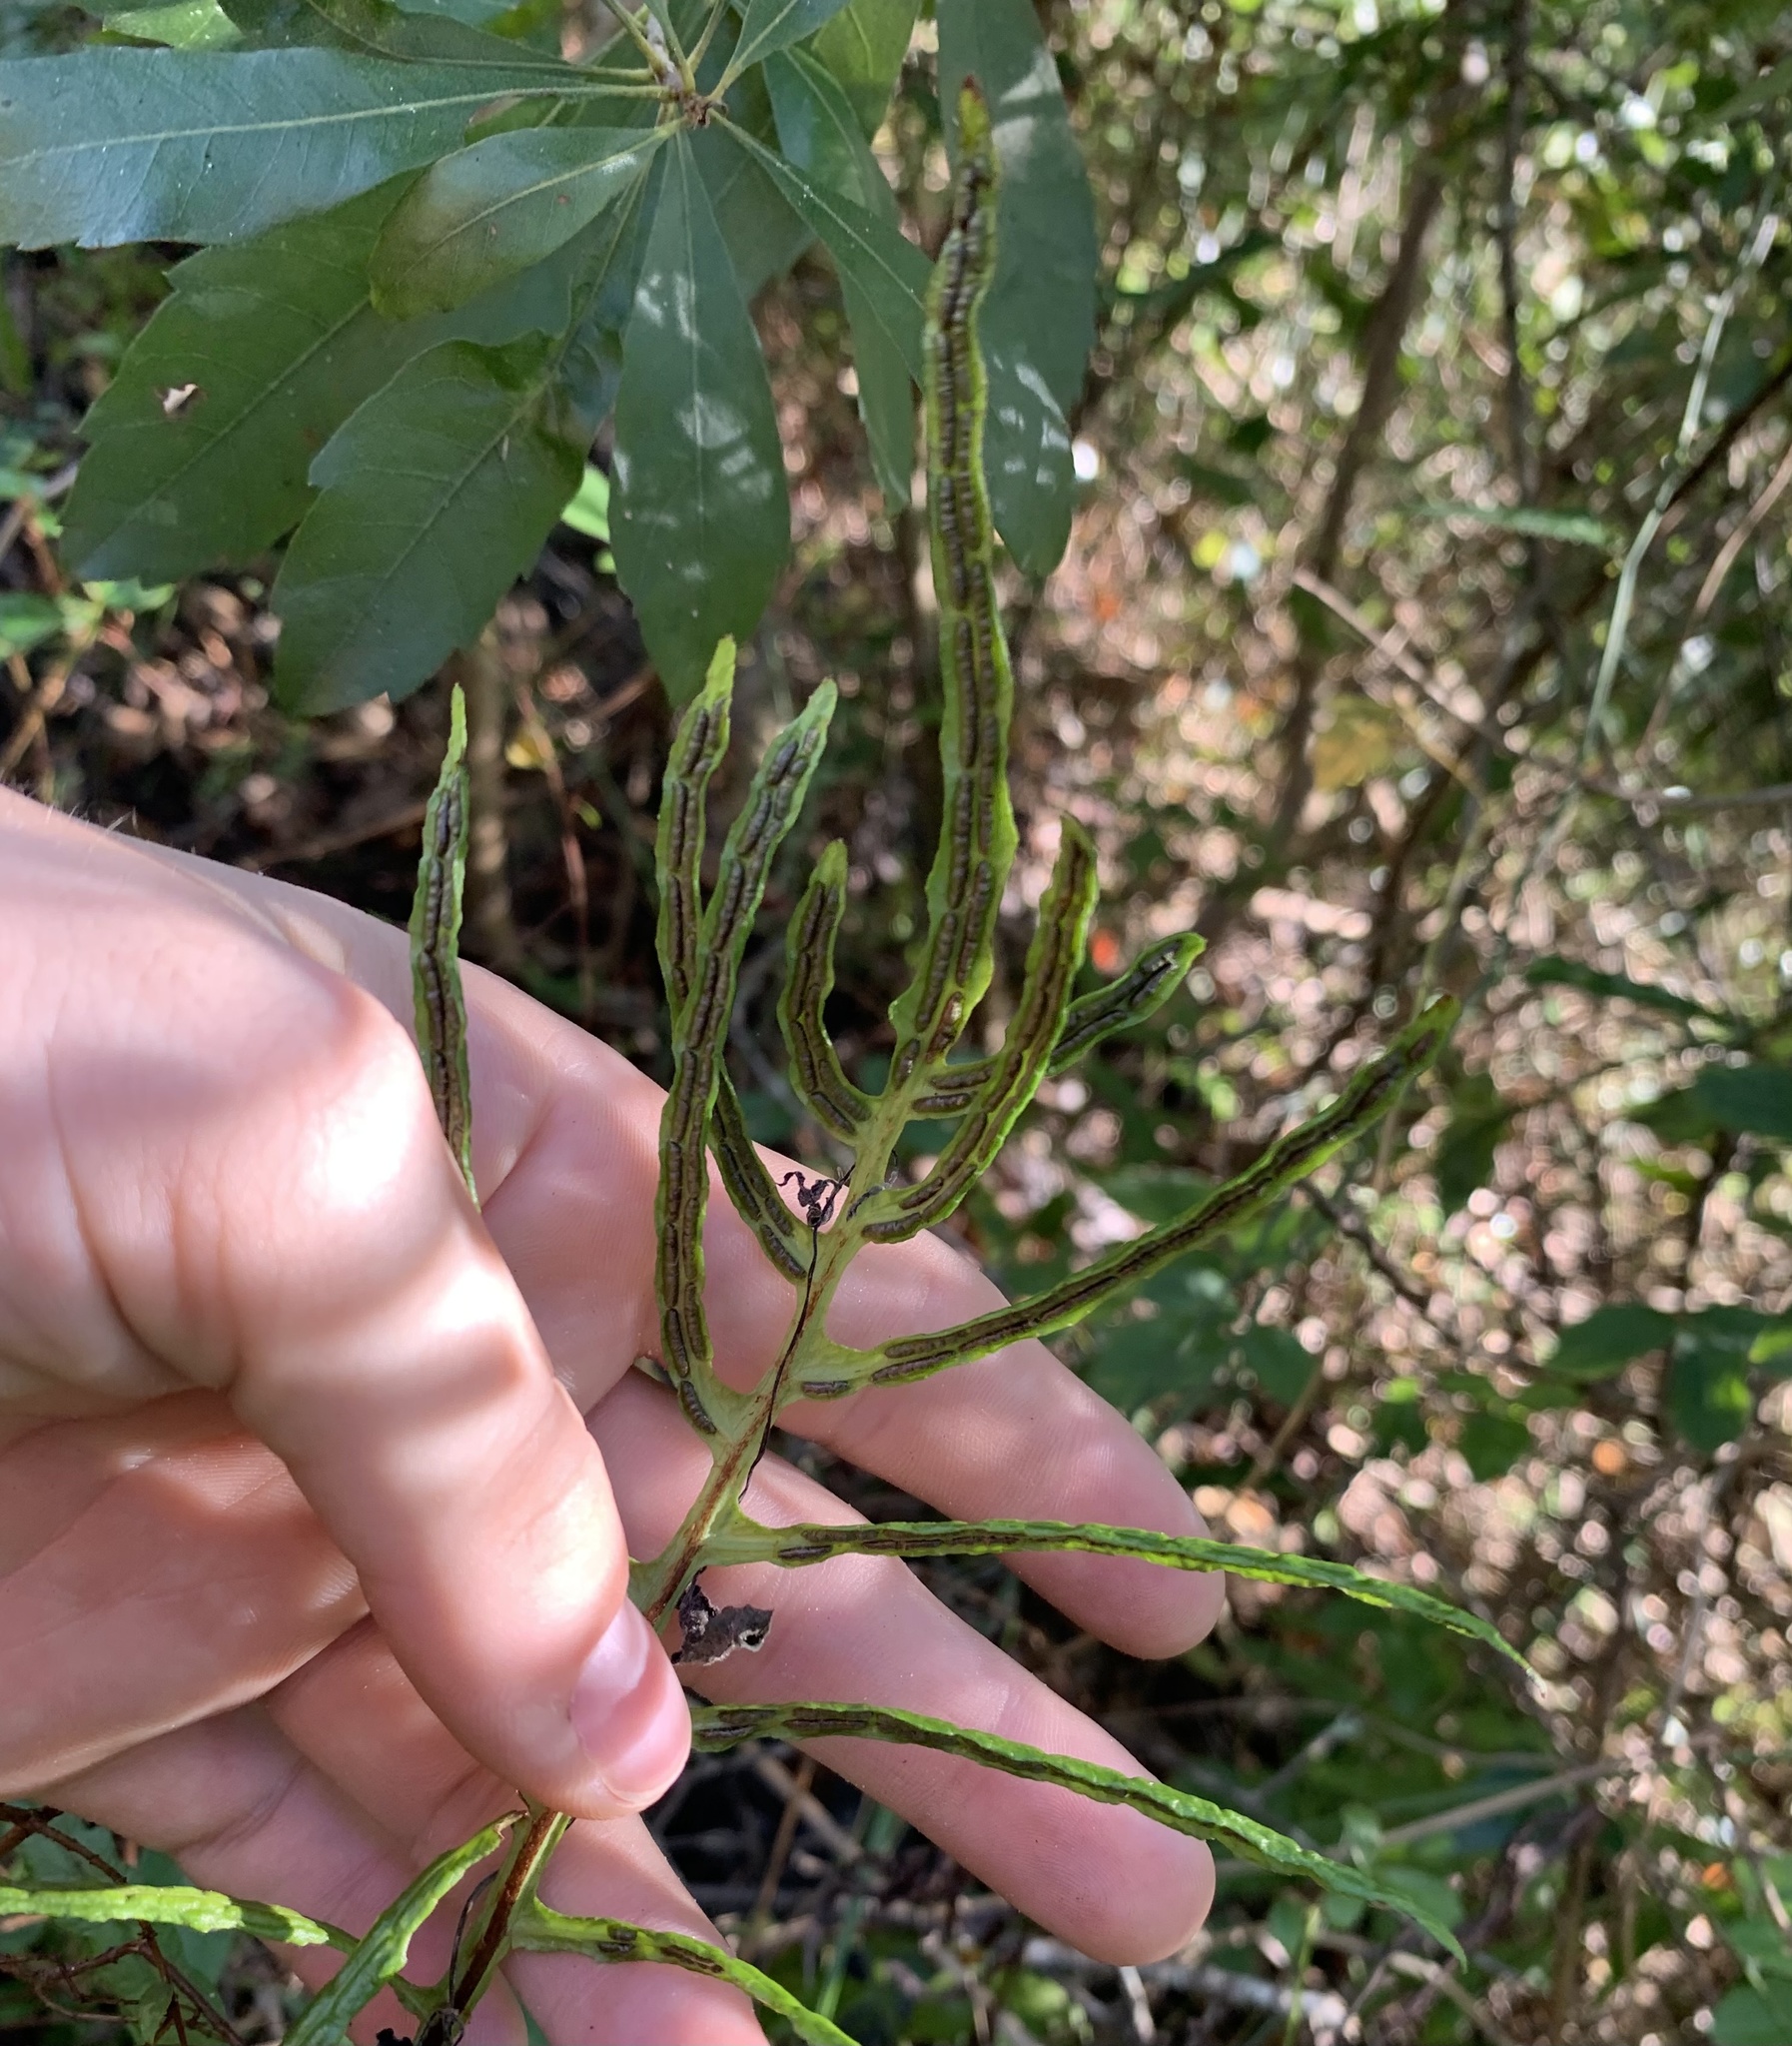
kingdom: Plantae
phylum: Tracheophyta
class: Polypodiopsida
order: Polypodiales
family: Blechnaceae
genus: Lorinseria
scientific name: Lorinseria areolata
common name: Dwarf chain fern
